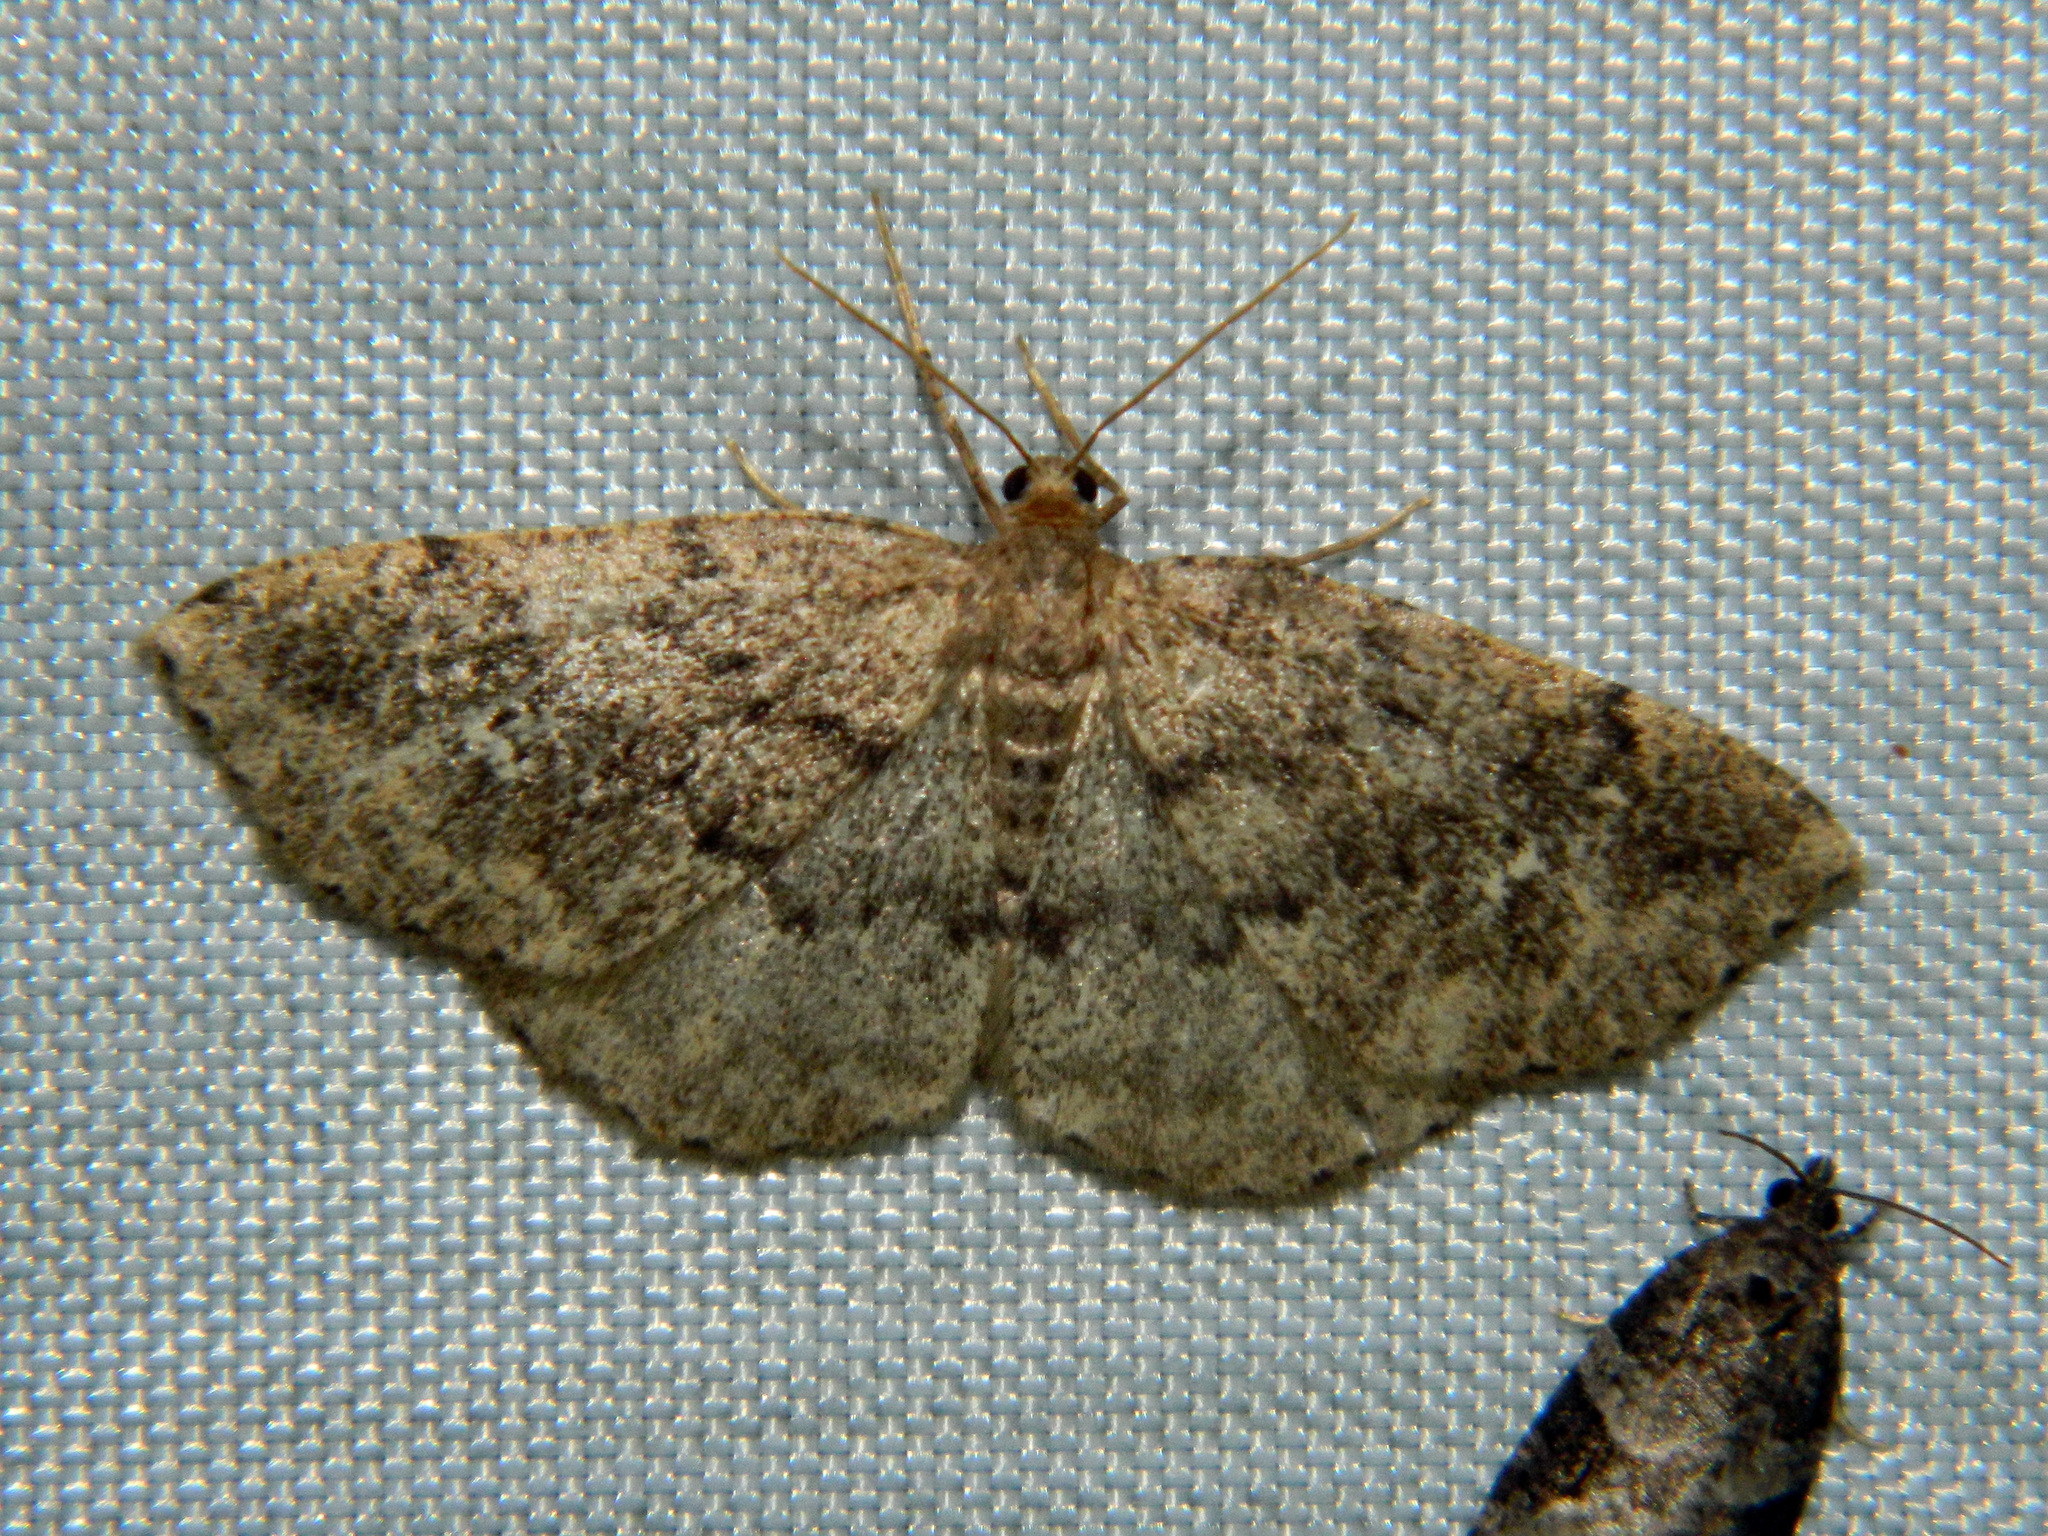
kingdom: Animalia
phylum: Arthropoda
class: Insecta
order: Lepidoptera
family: Geometridae
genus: Homochlodes
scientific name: Homochlodes fritillaria
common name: Pale homochlodes
